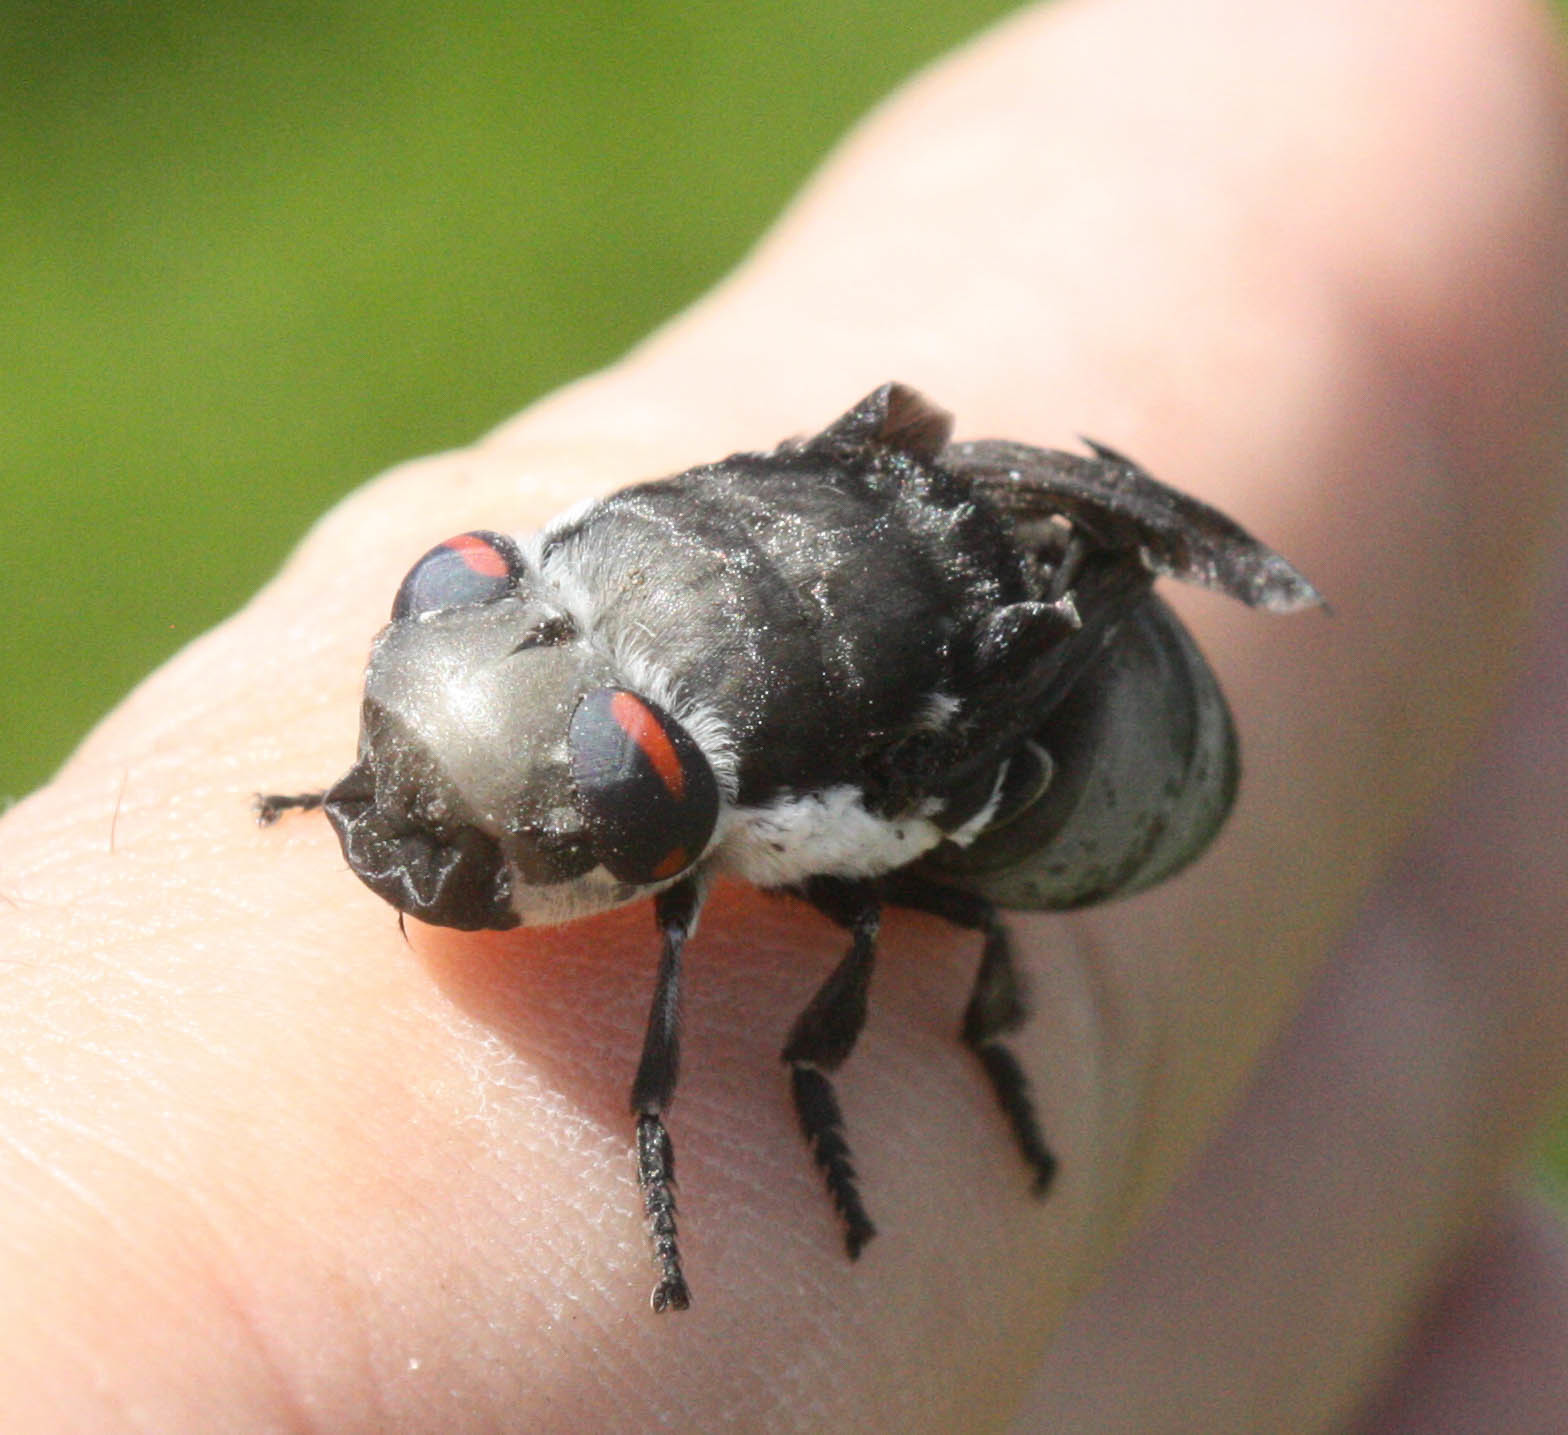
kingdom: Animalia
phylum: Arthropoda
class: Insecta
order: Diptera
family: Oestridae
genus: Cuterebra
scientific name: Cuterebra lepivora
